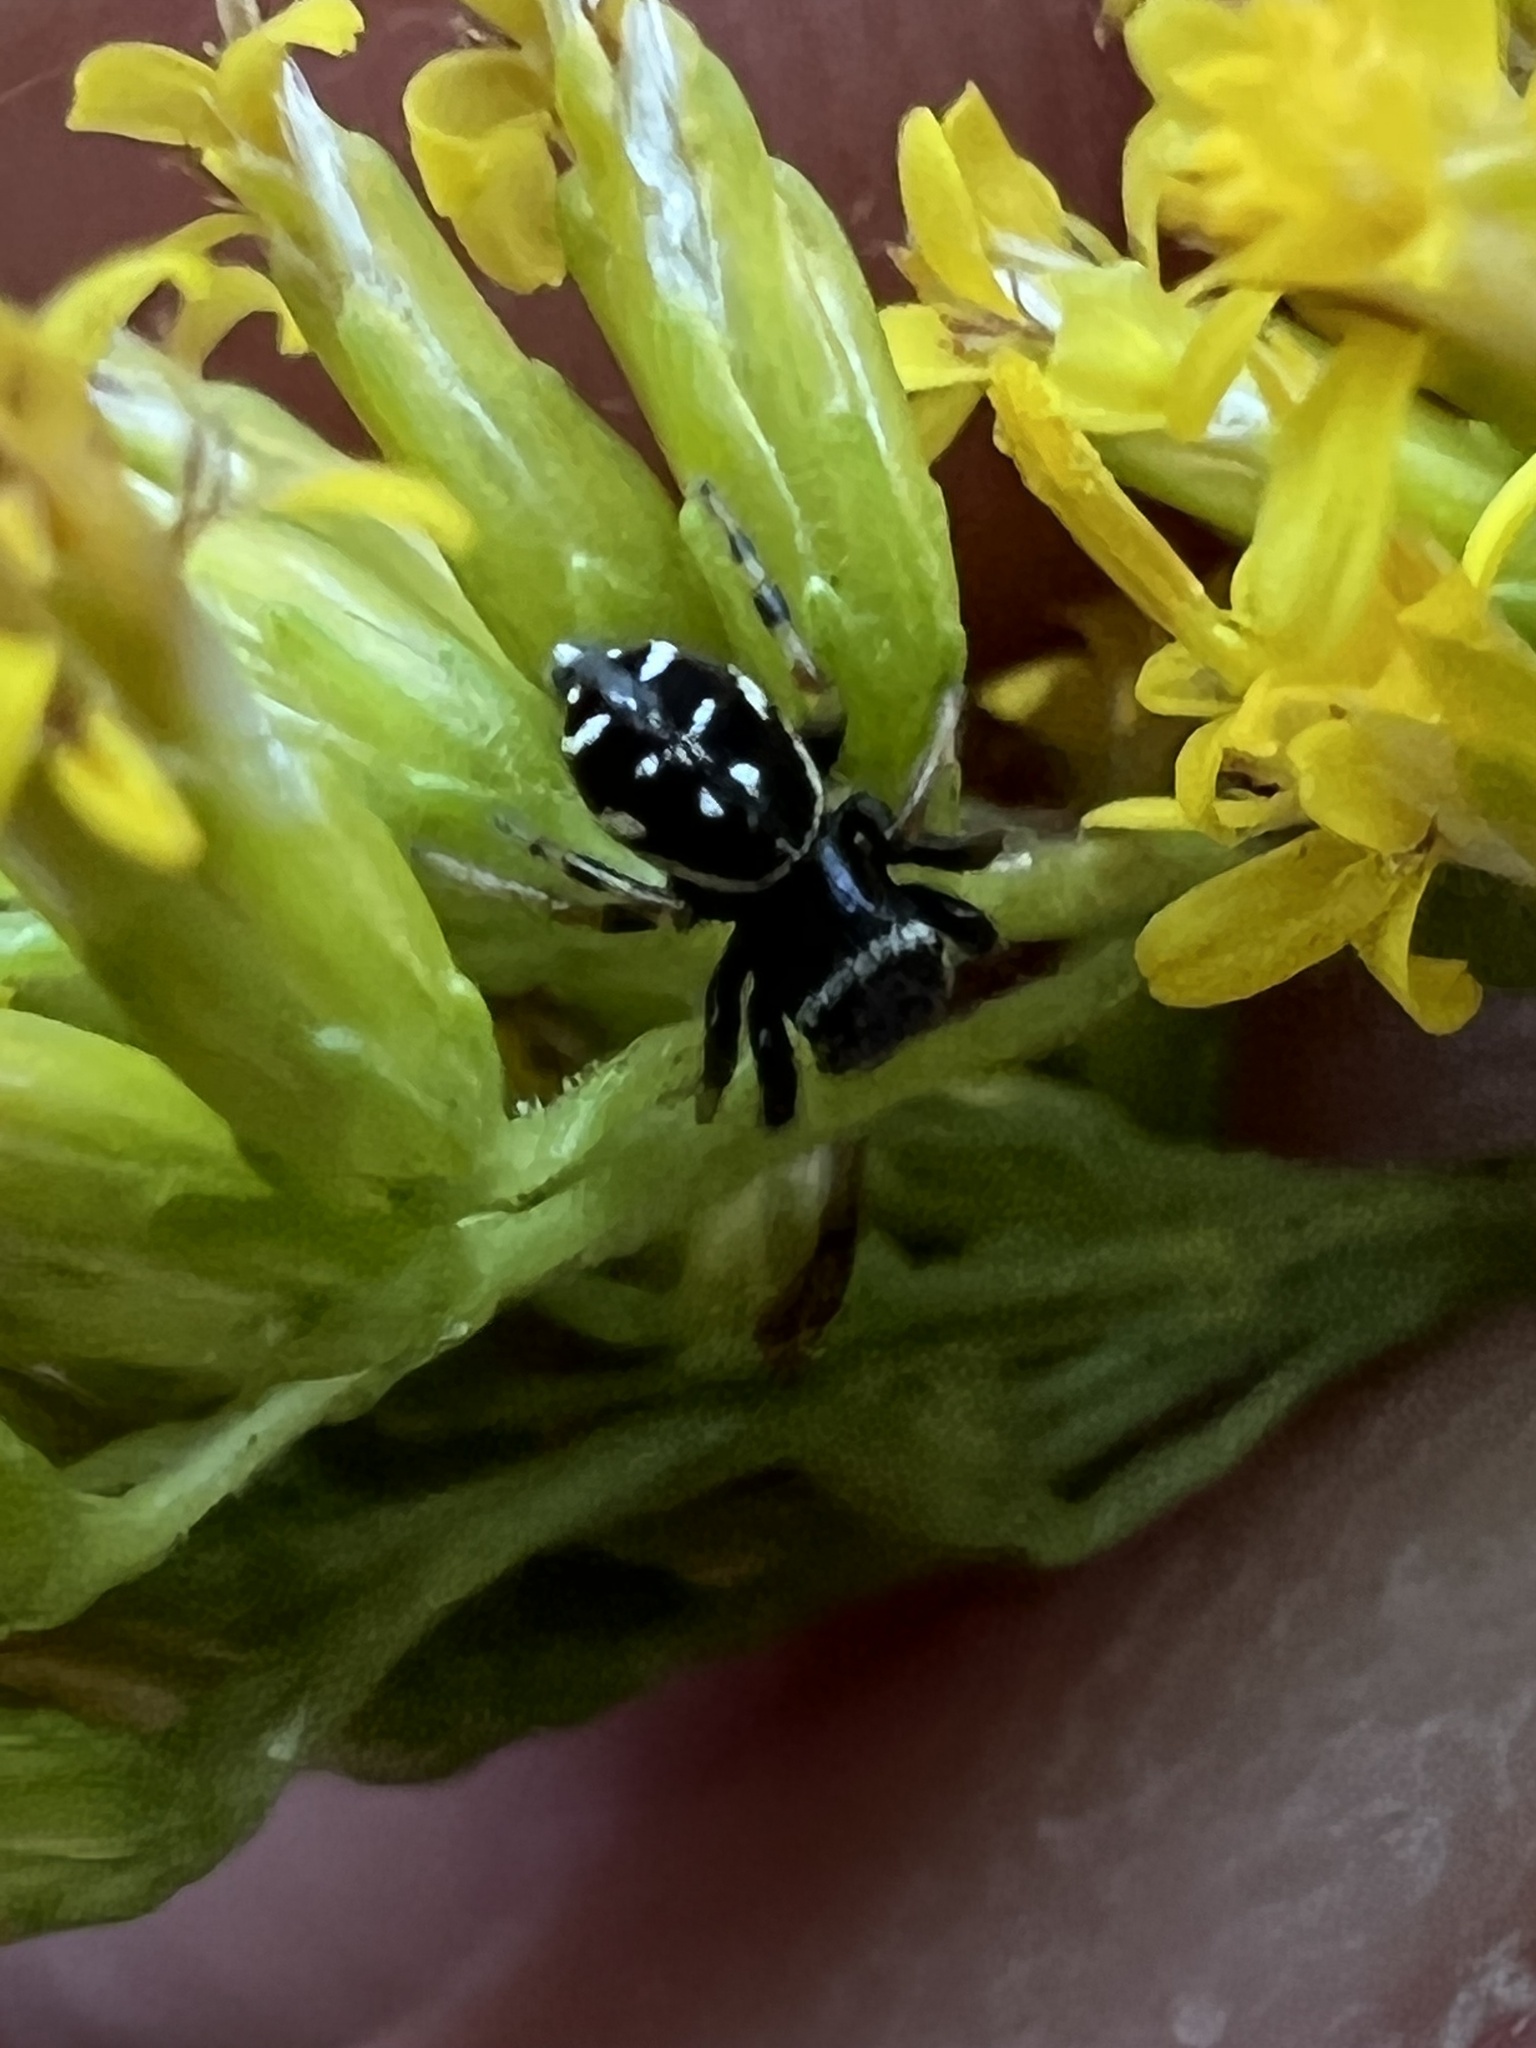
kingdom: Animalia
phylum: Arthropoda
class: Arachnida
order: Araneae
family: Salticidae
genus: Paraphidippus
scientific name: Paraphidippus aurantius
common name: Jumping spiders
